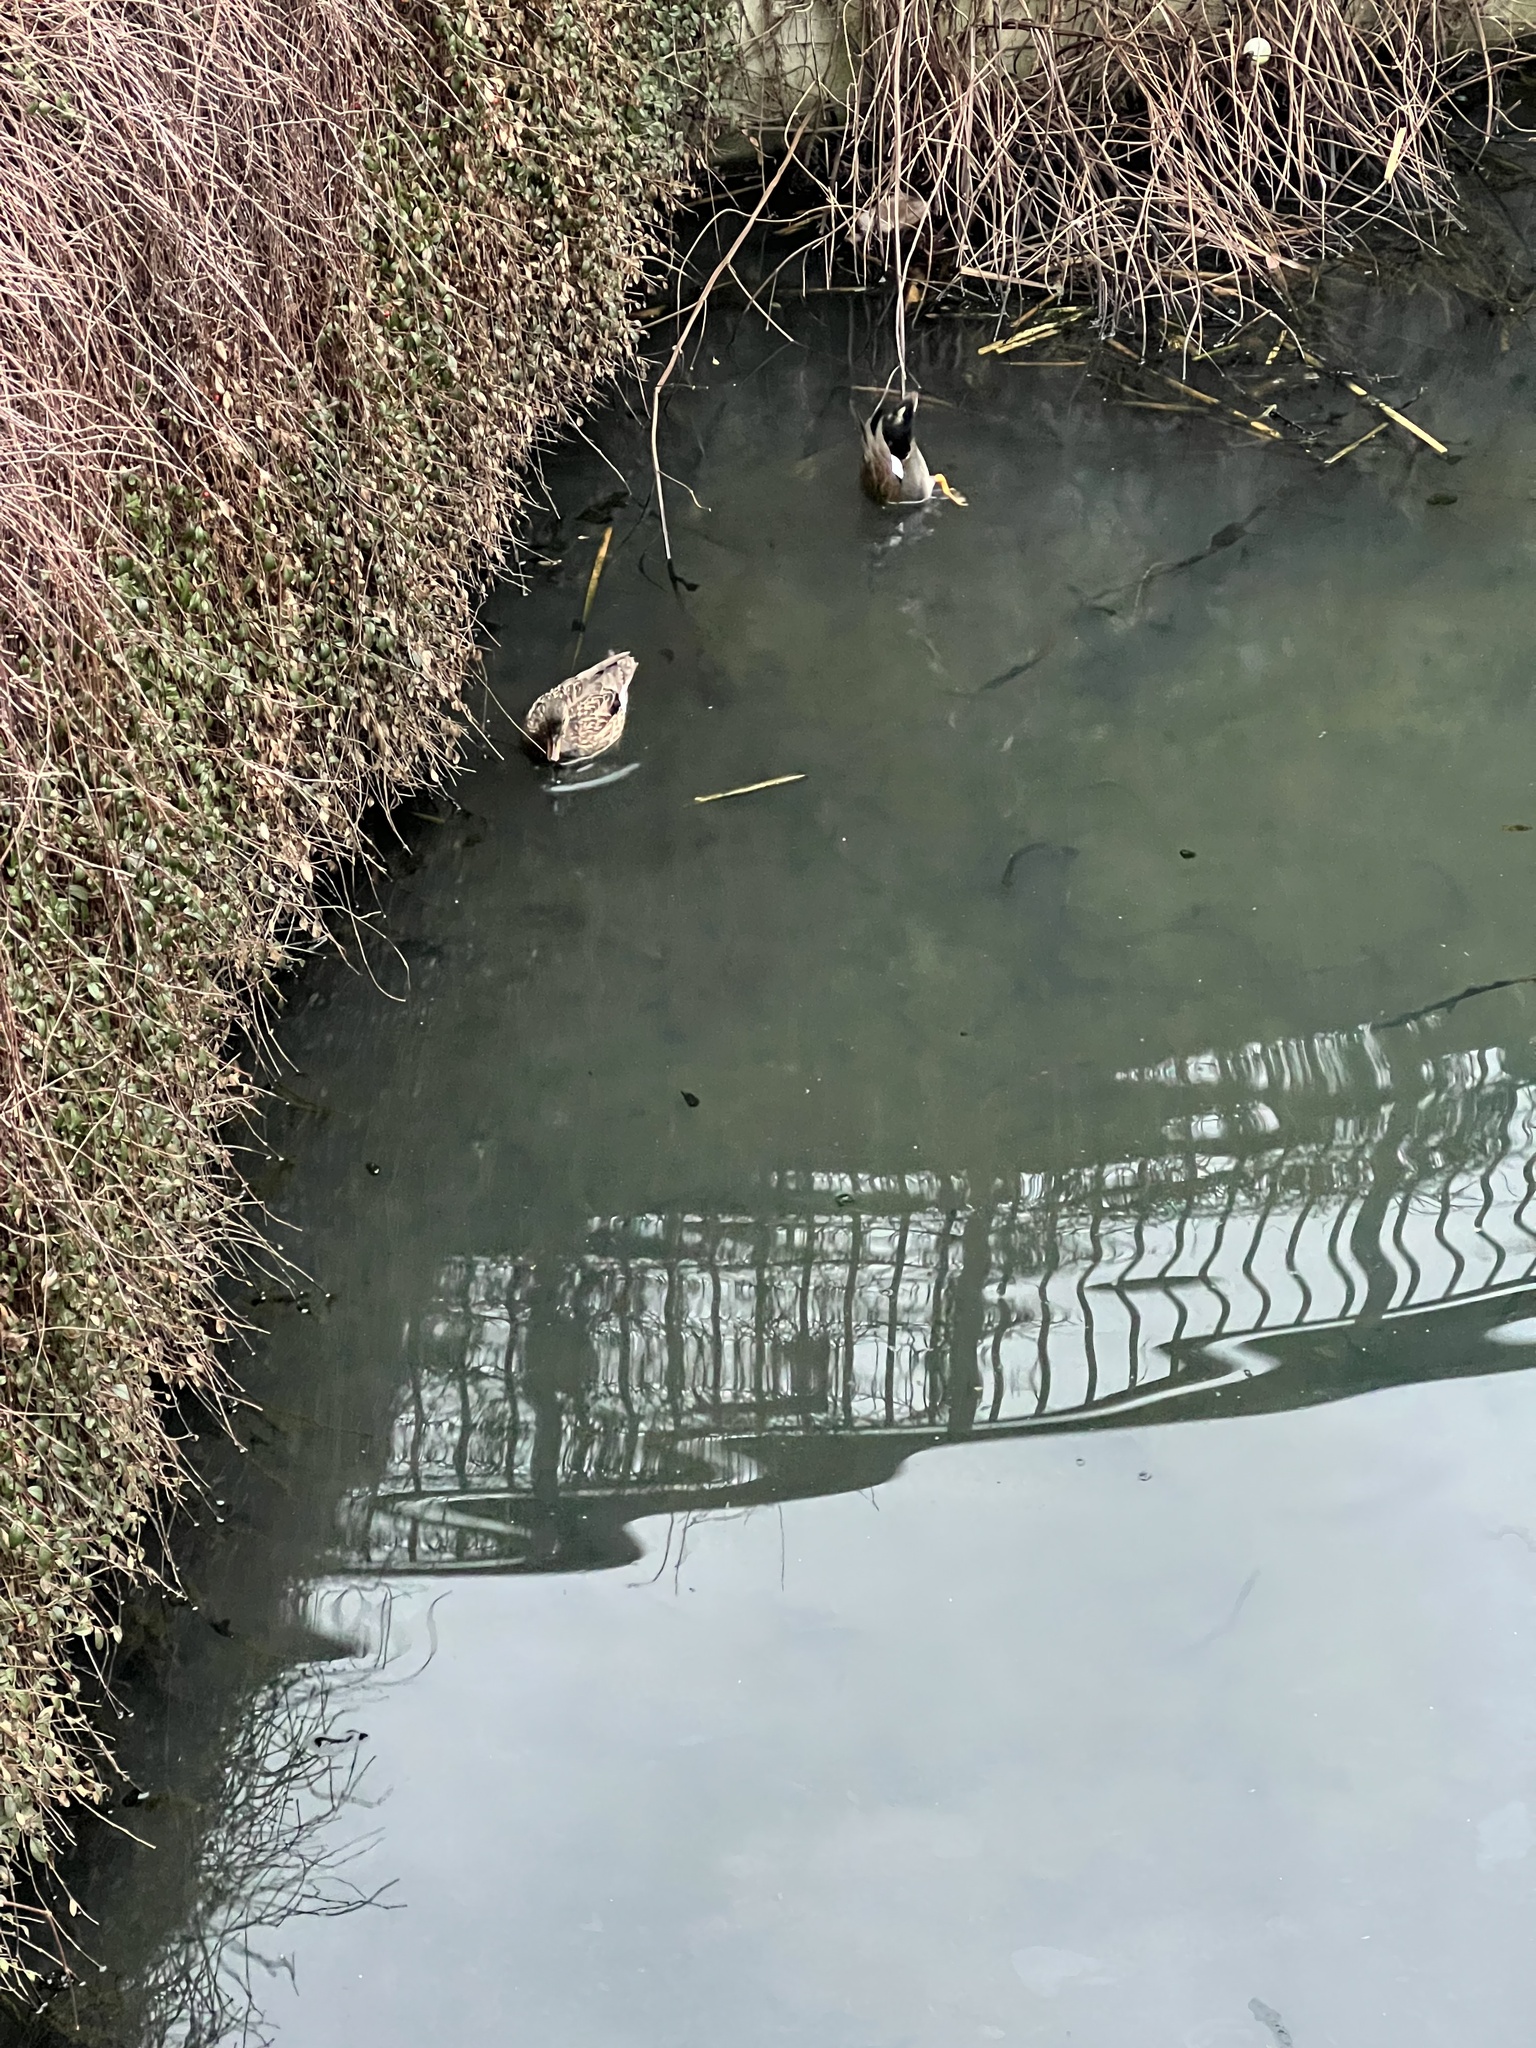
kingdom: Animalia
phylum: Chordata
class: Aves
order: Anseriformes
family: Anatidae
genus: Mareca
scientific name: Mareca strepera
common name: Gadwall
